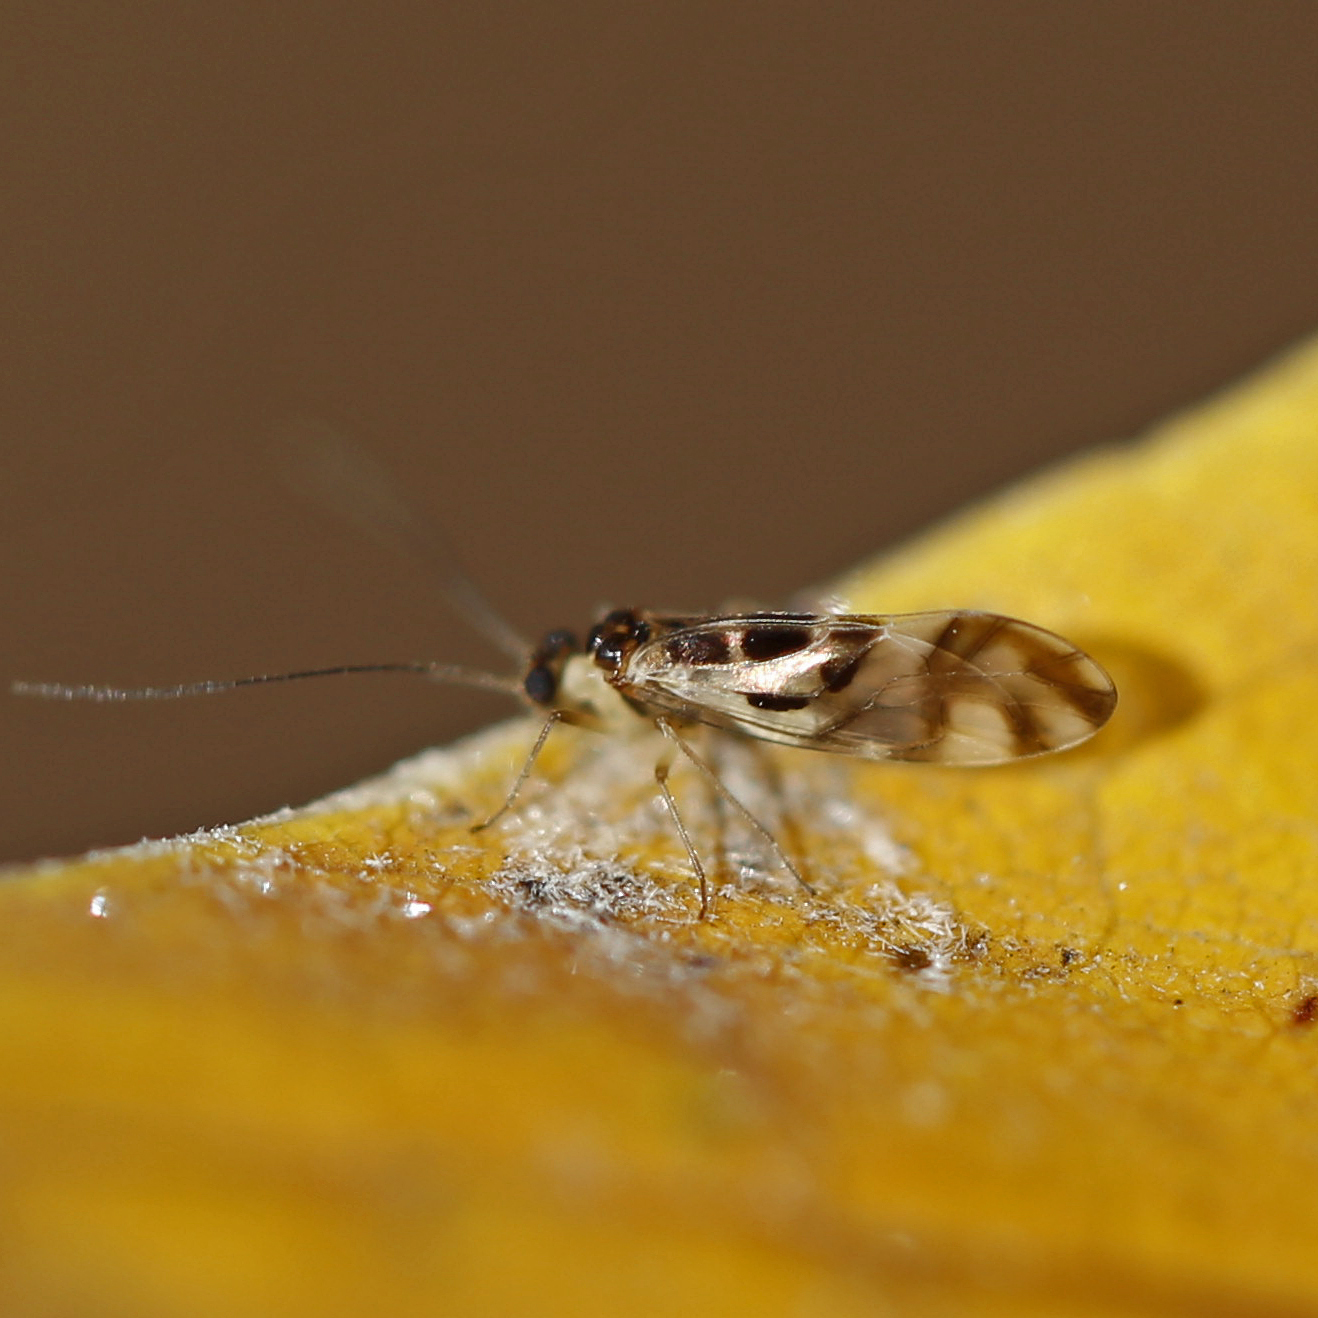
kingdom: Animalia
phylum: Arthropoda
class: Insecta
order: Psocodea
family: Stenopsocidae
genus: Graphopsocus
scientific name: Graphopsocus cruciatus
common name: Lizard bark louse
